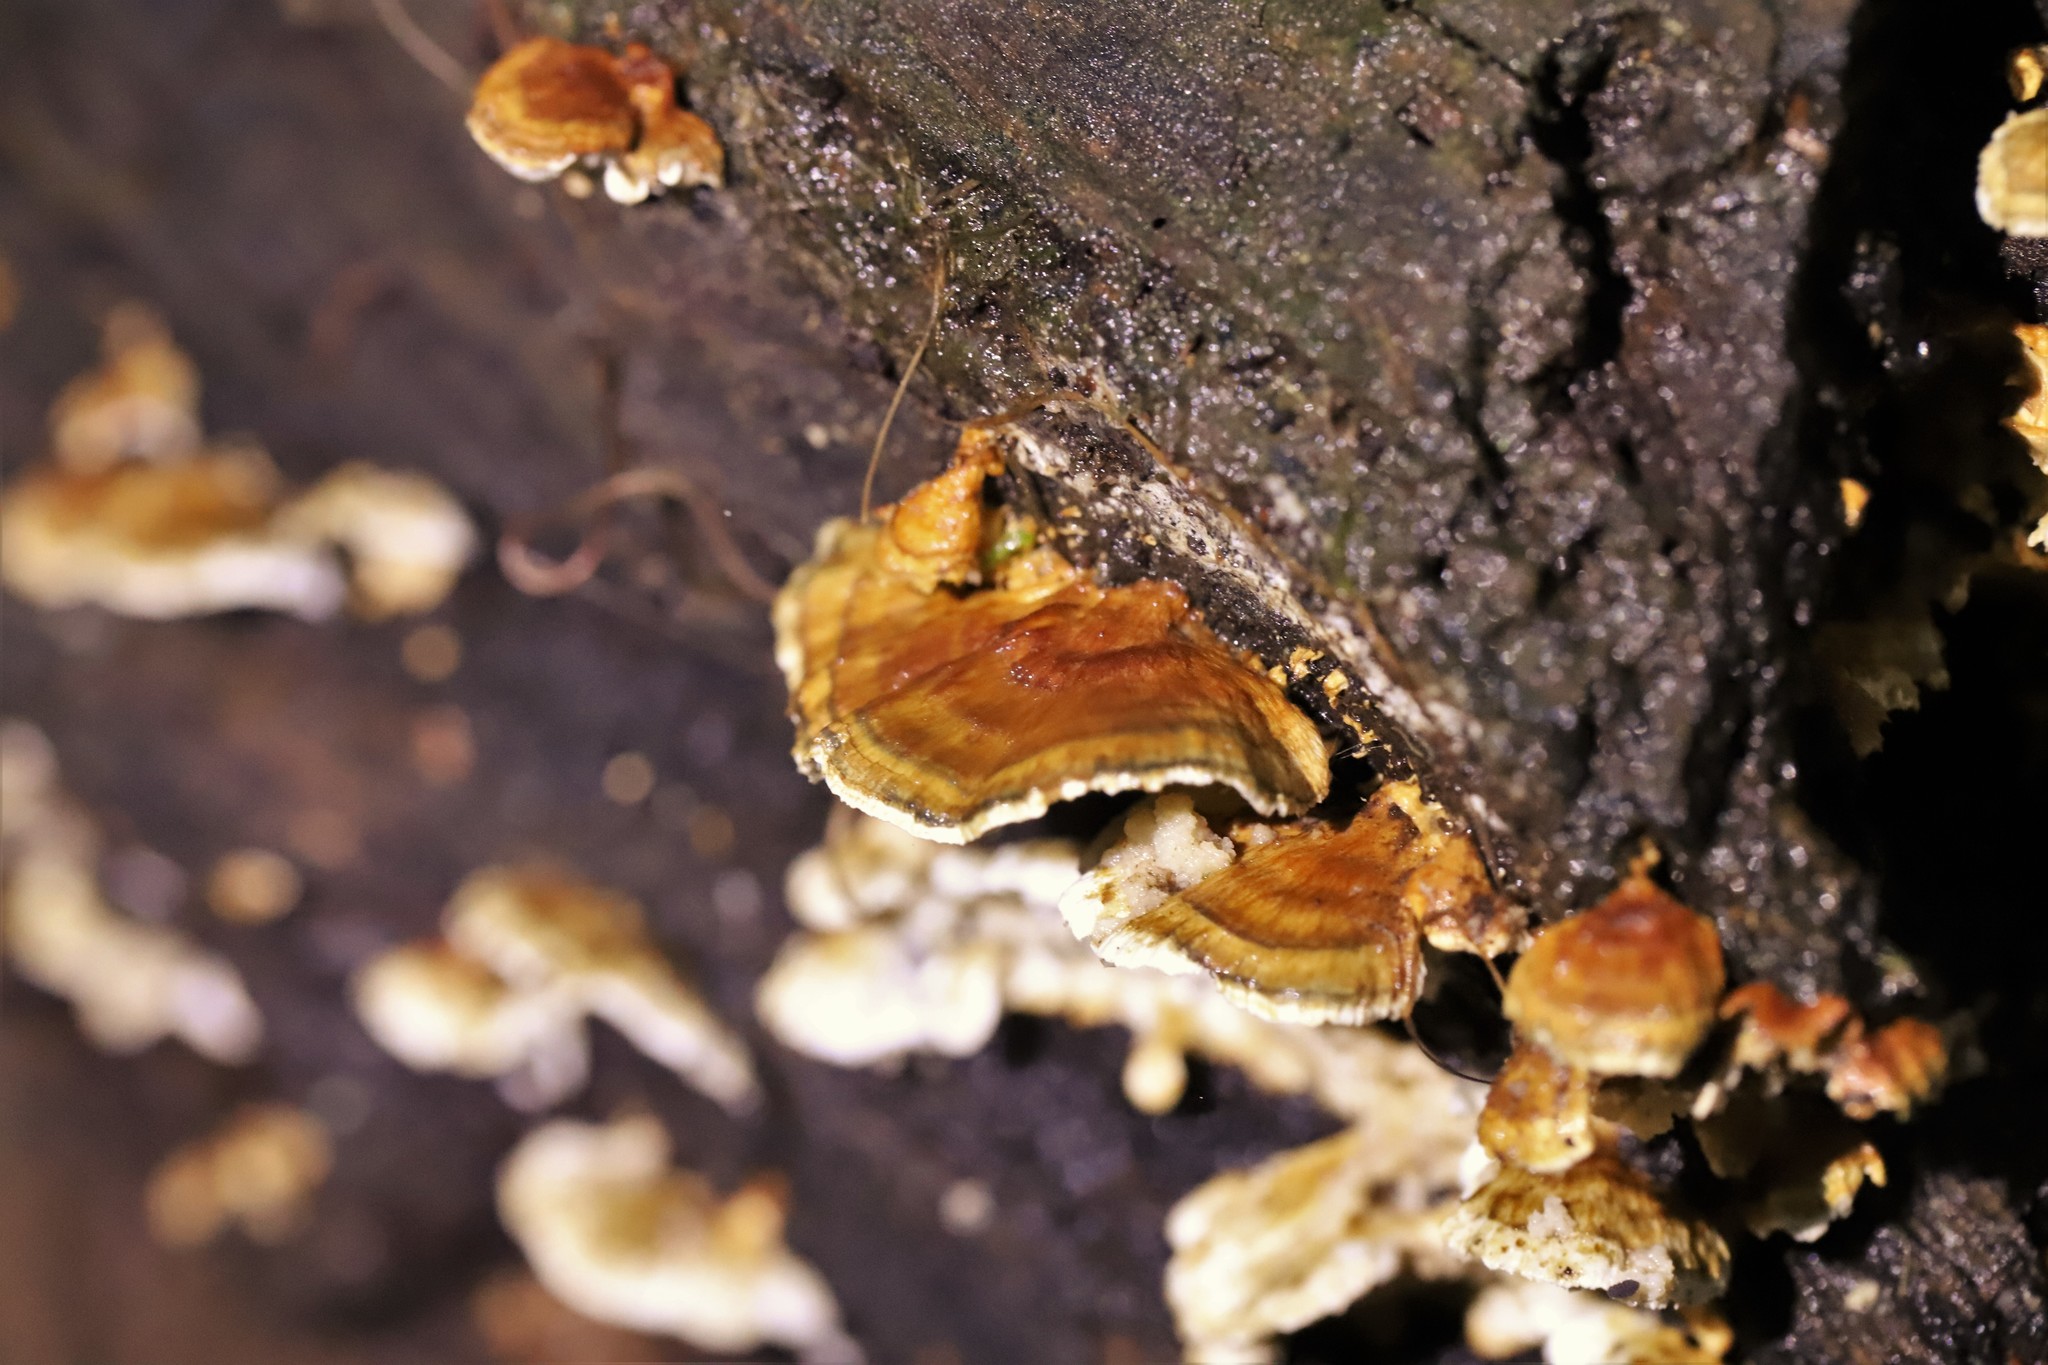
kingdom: Fungi
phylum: Basidiomycota
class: Agaricomycetes
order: Polyporales
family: Cerrenaceae
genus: Cerrena
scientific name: Cerrena zonata
